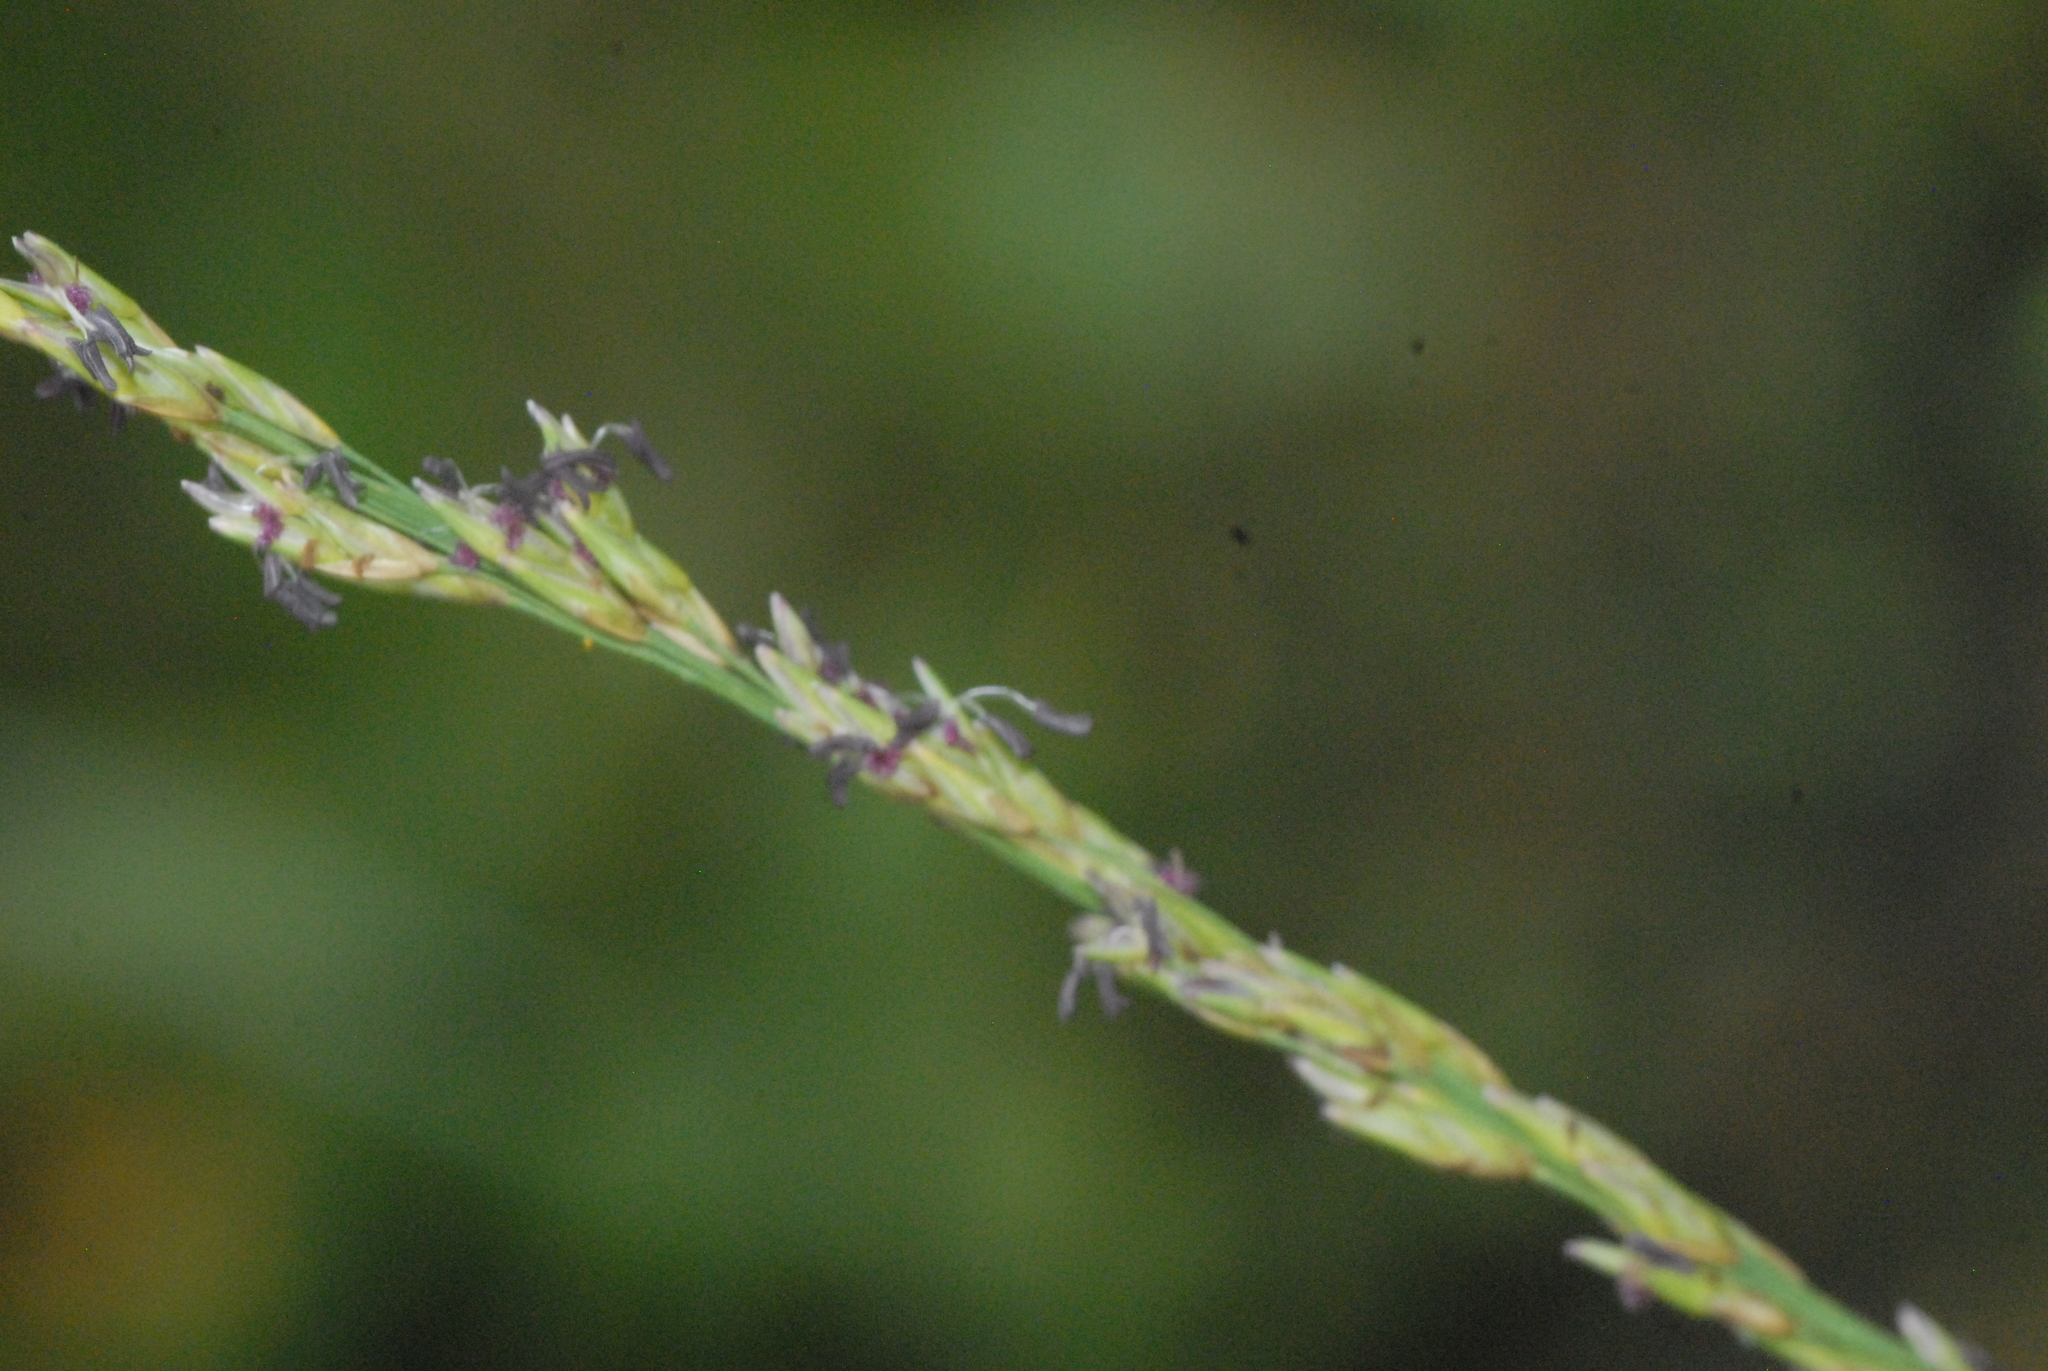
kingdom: Plantae
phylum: Tracheophyta
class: Liliopsida
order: Poales
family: Poaceae
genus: Molinia
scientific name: Molinia caerulea
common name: Purple moor-grass
